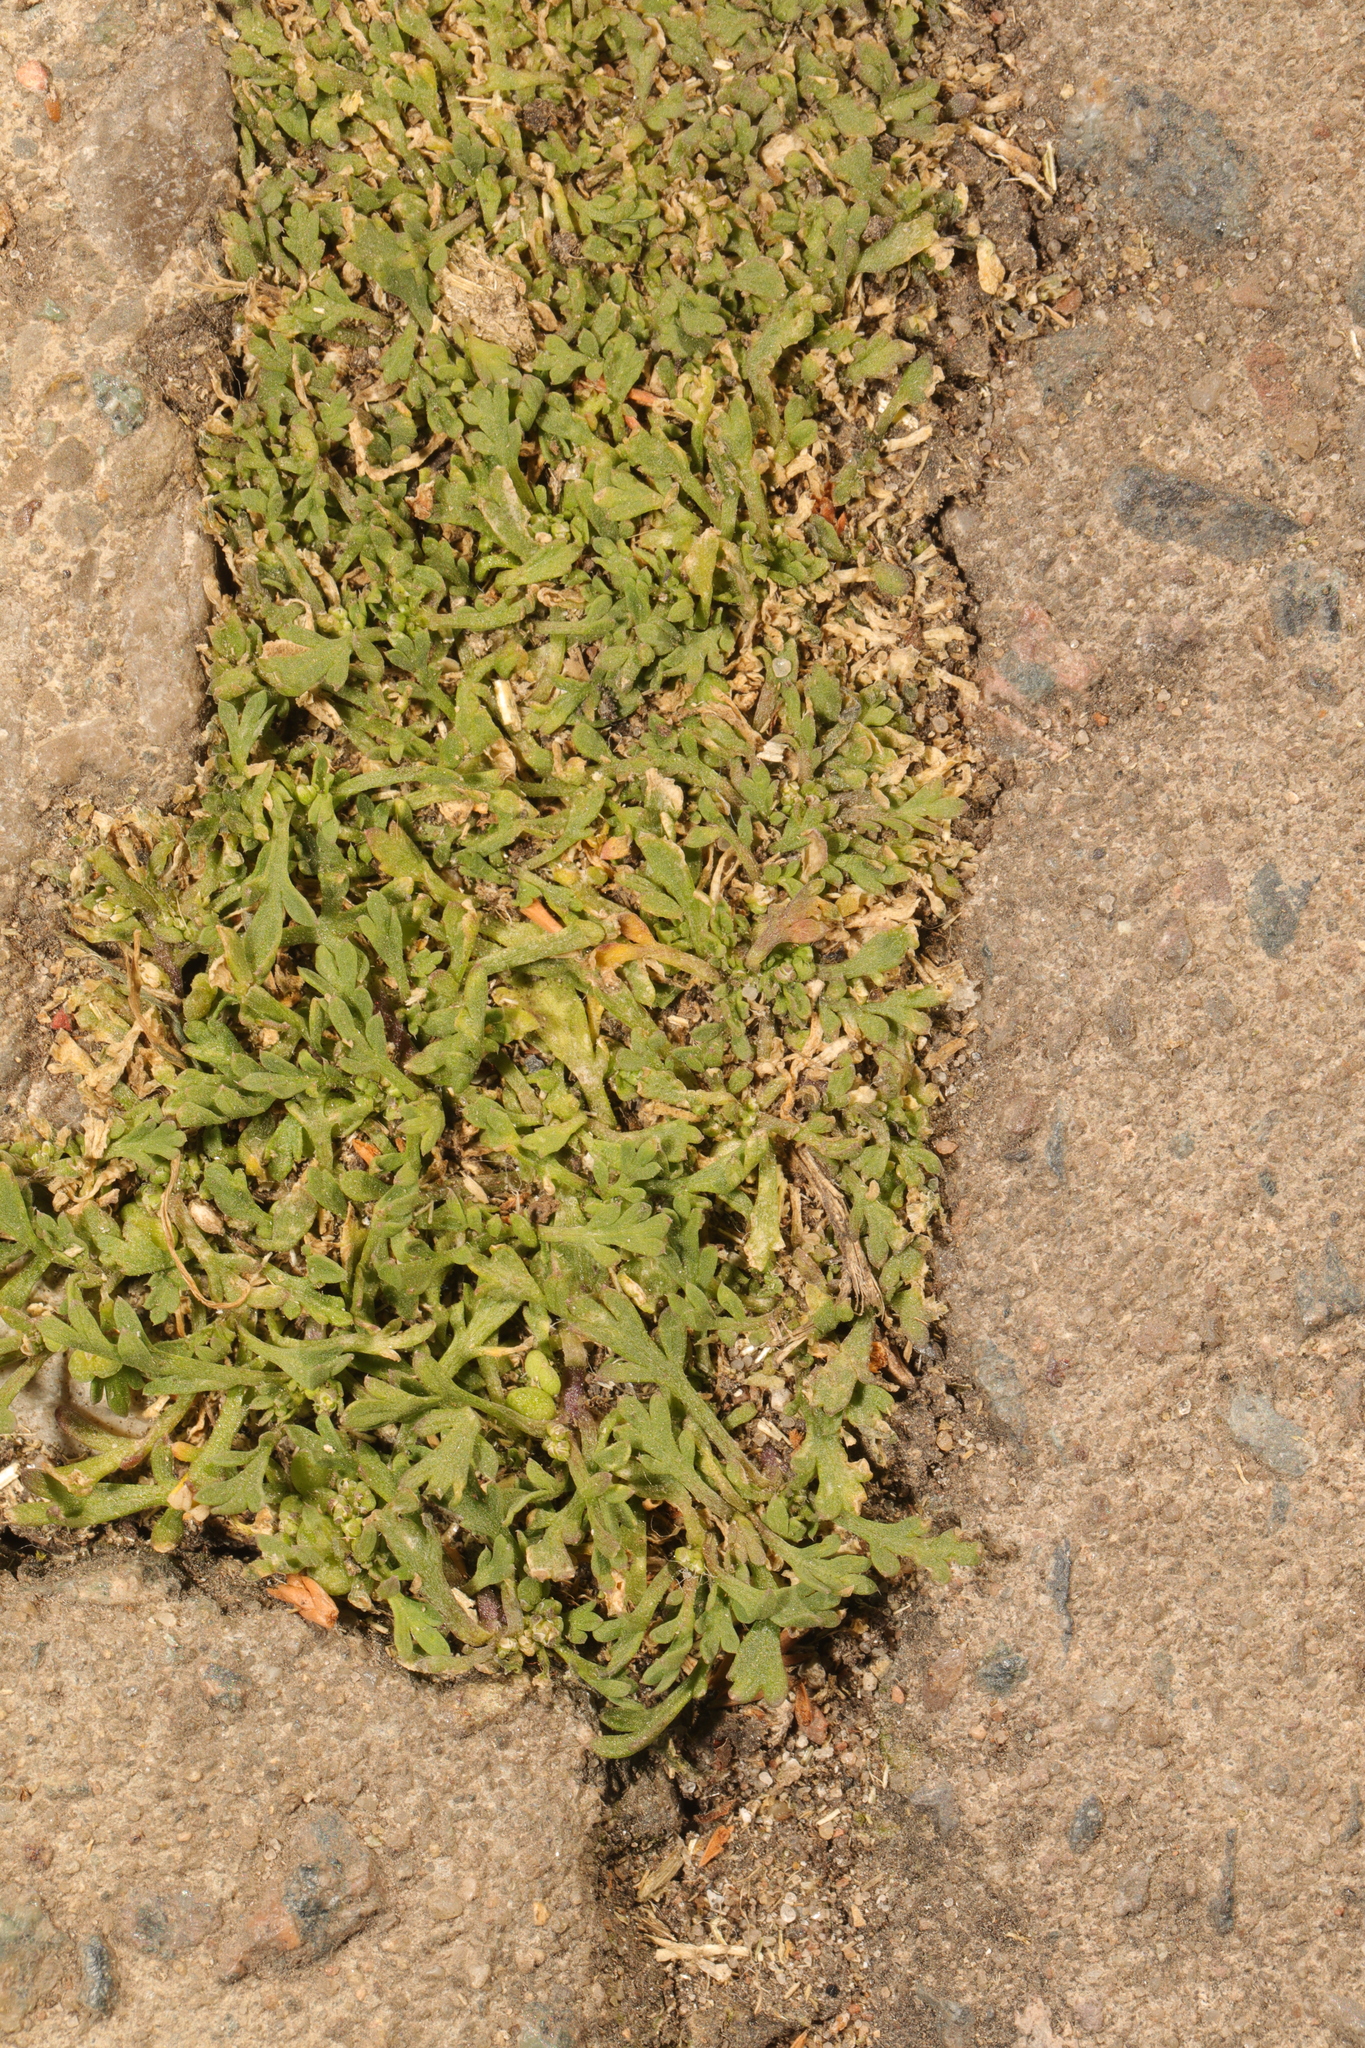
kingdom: Plantae
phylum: Tracheophyta
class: Magnoliopsida
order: Brassicales
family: Brassicaceae
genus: Lepidium
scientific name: Lepidium didymum
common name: Lesser swinecress
